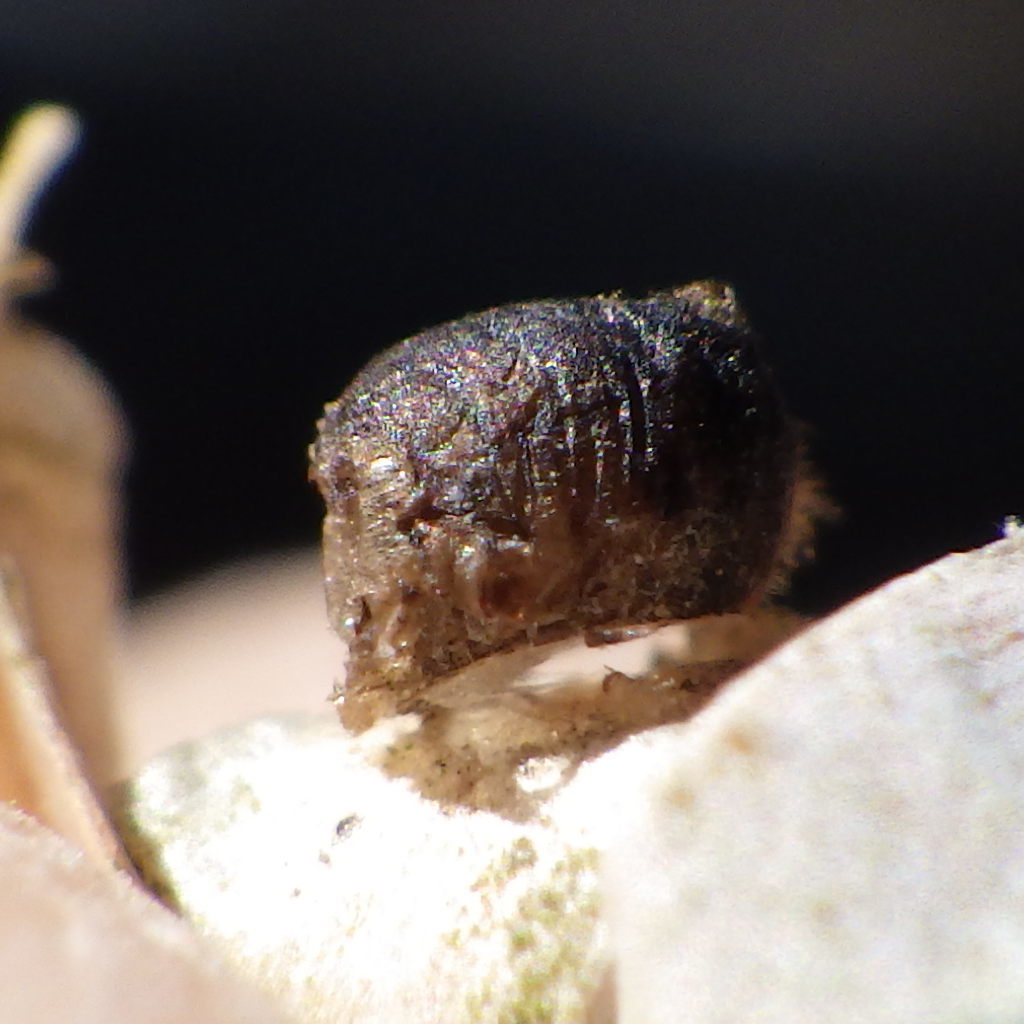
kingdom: Animalia
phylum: Arthropoda
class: Insecta
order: Lepidoptera
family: Erebidae
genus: Lymantria
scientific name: Lymantria dispar
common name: Gypsy moth
